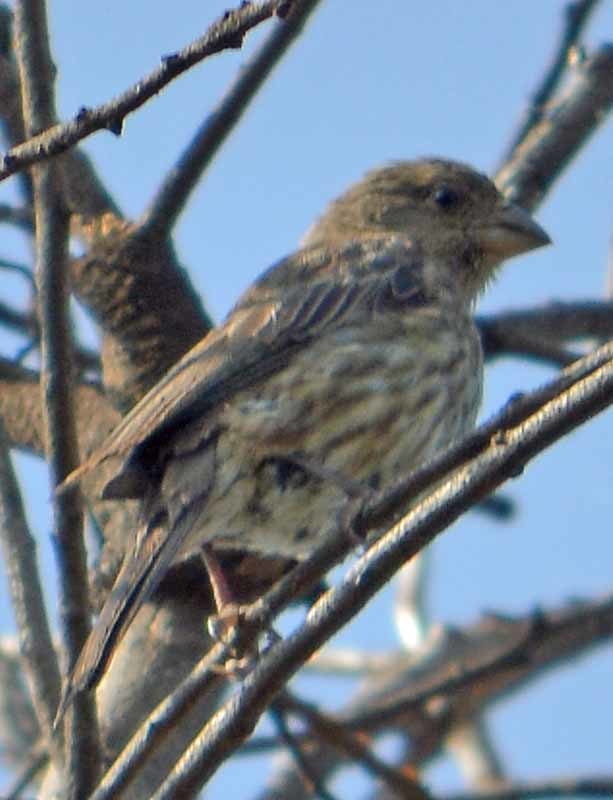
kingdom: Animalia
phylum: Chordata
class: Aves
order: Passeriformes
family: Fringillidae
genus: Haemorhous
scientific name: Haemorhous mexicanus
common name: House finch
